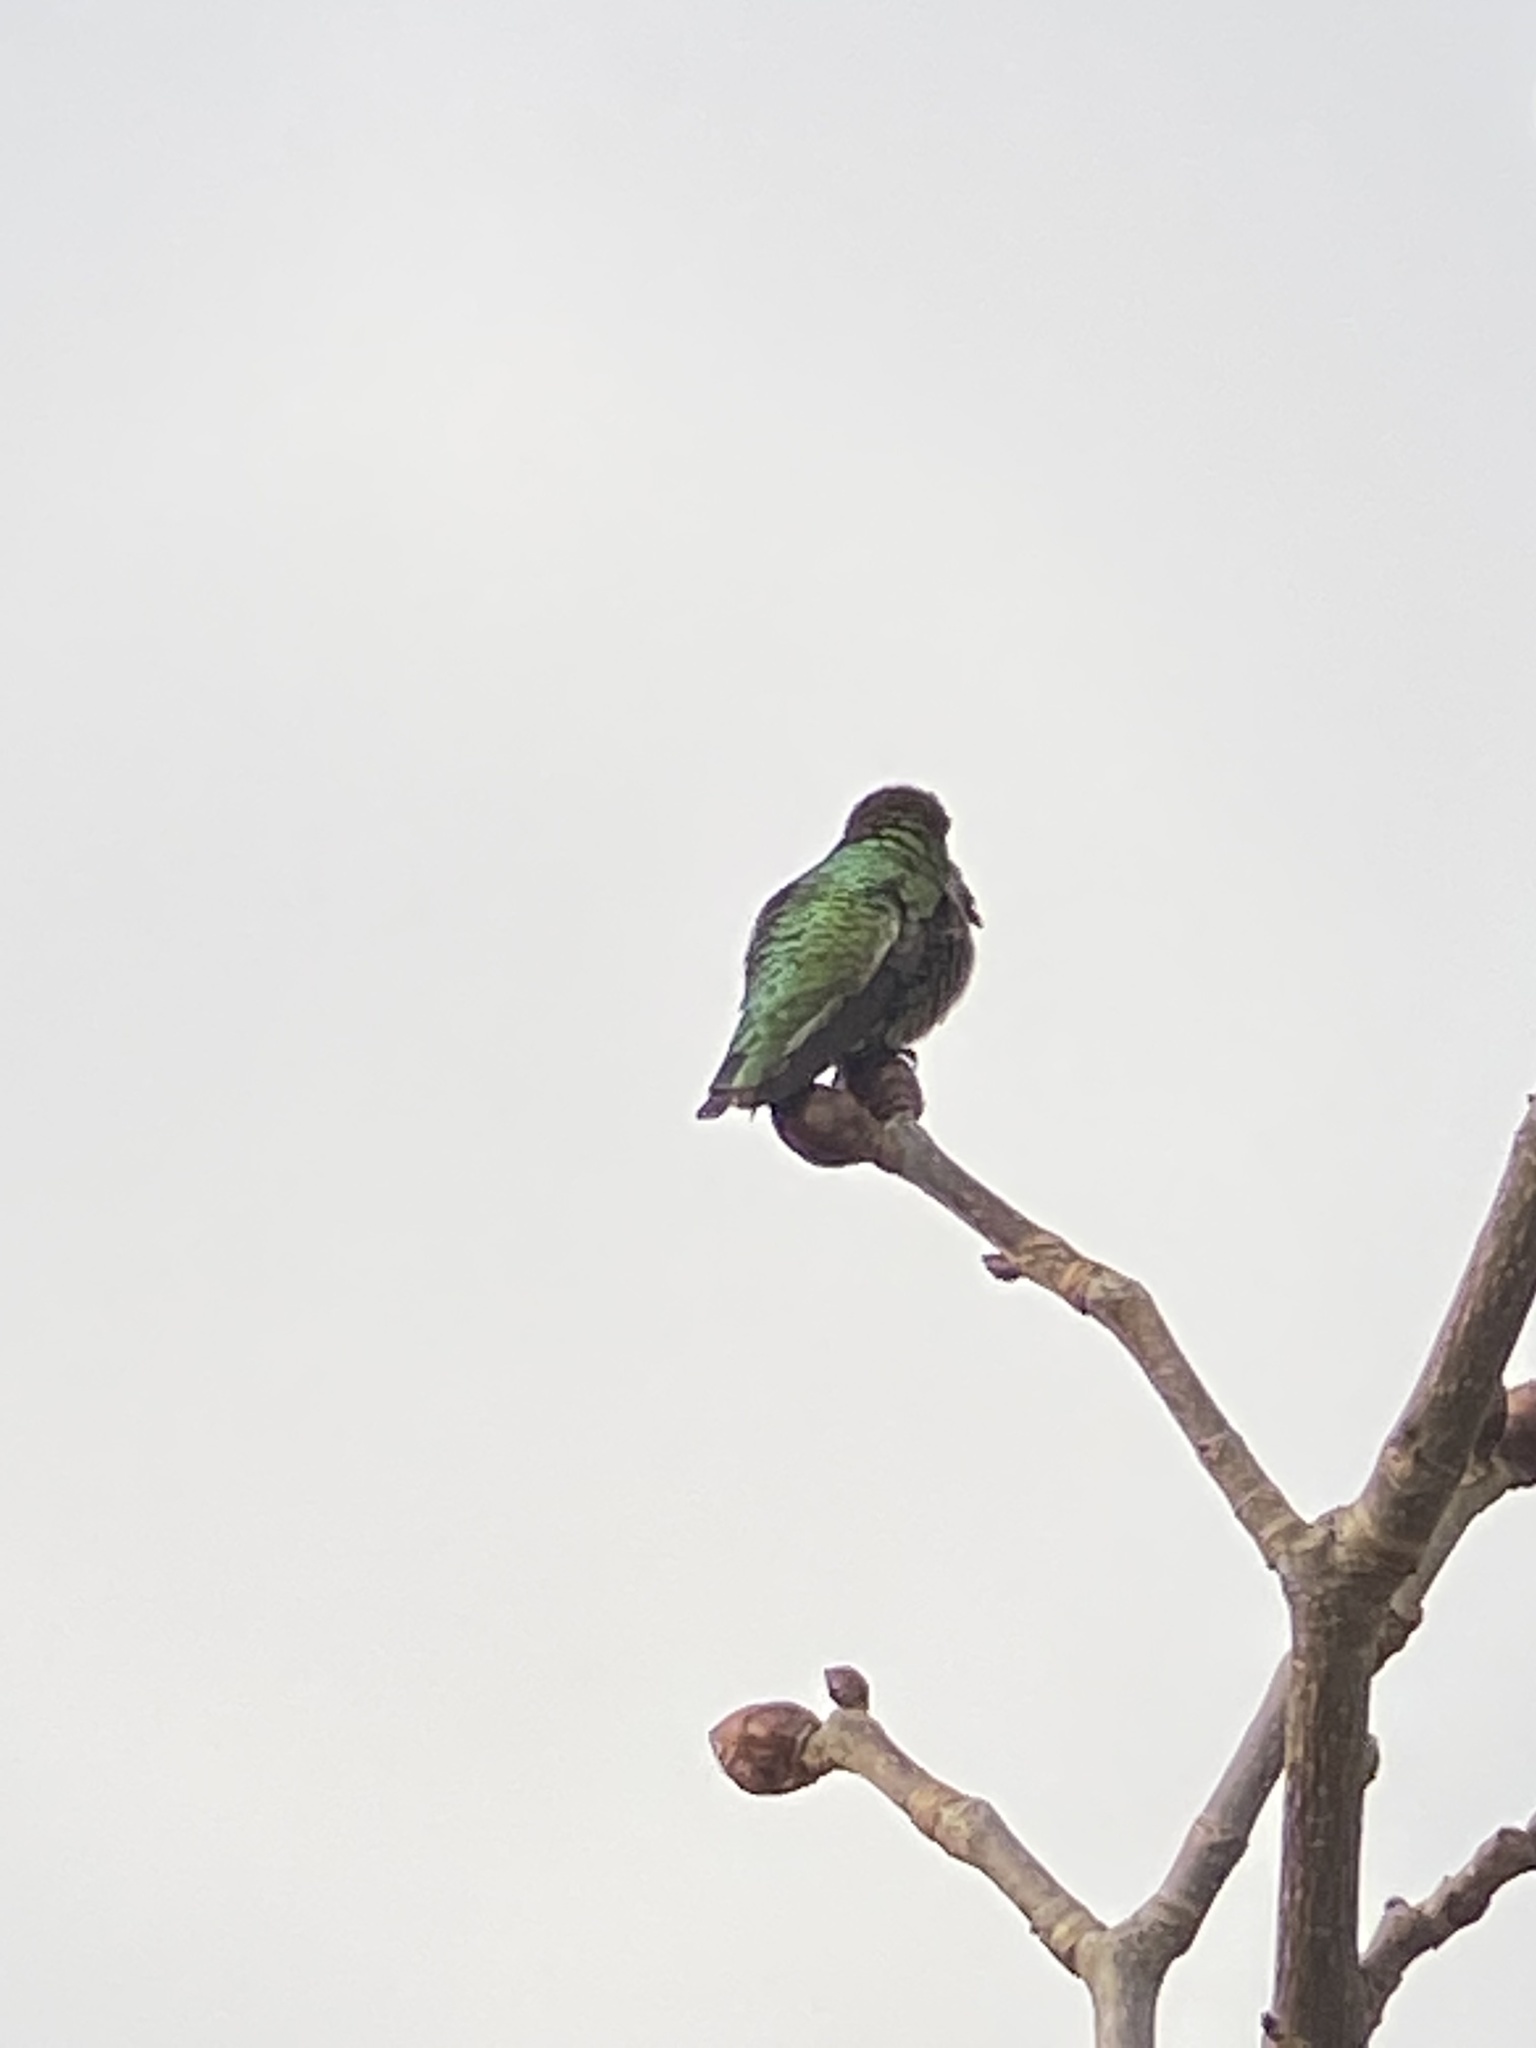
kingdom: Animalia
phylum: Chordata
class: Aves
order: Apodiformes
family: Trochilidae
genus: Calypte
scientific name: Calypte anna
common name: Anna's hummingbird
